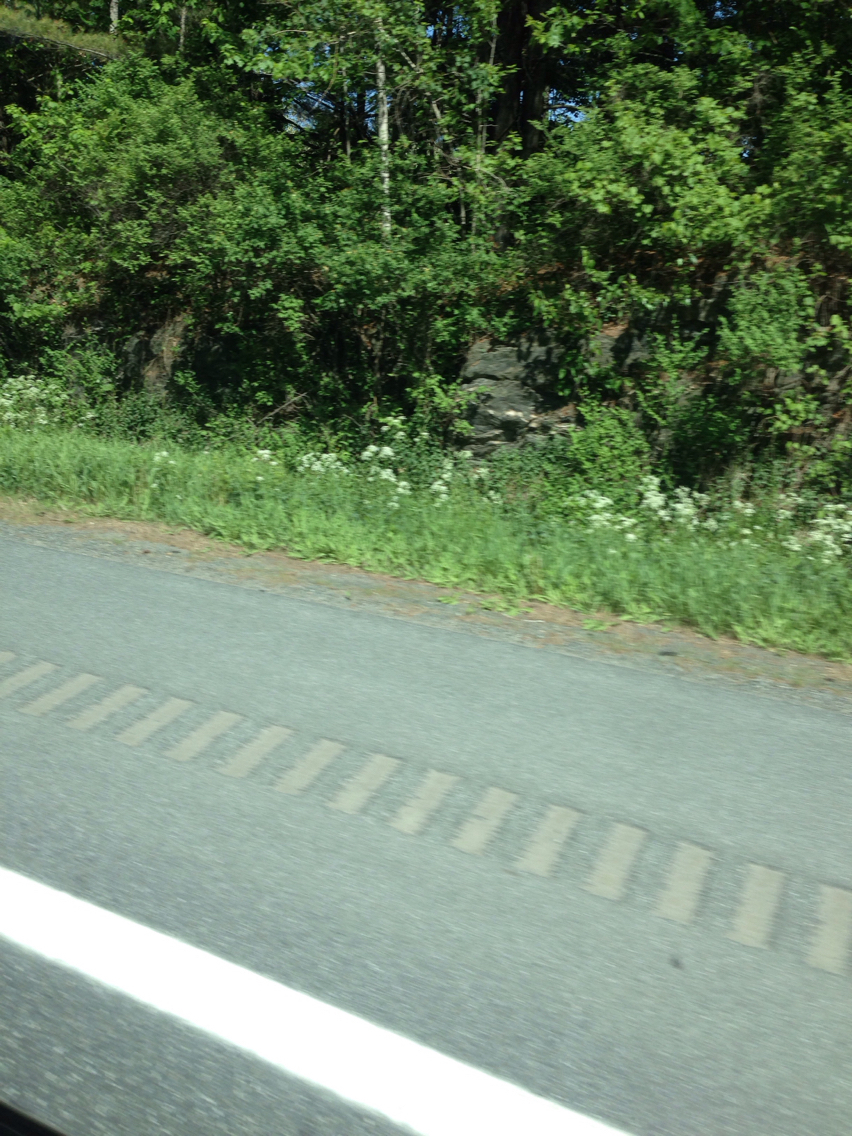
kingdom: Plantae
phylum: Tracheophyta
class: Magnoliopsida
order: Apiales
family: Apiaceae
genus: Anthriscus
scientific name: Anthriscus sylvestris
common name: Cow parsley
